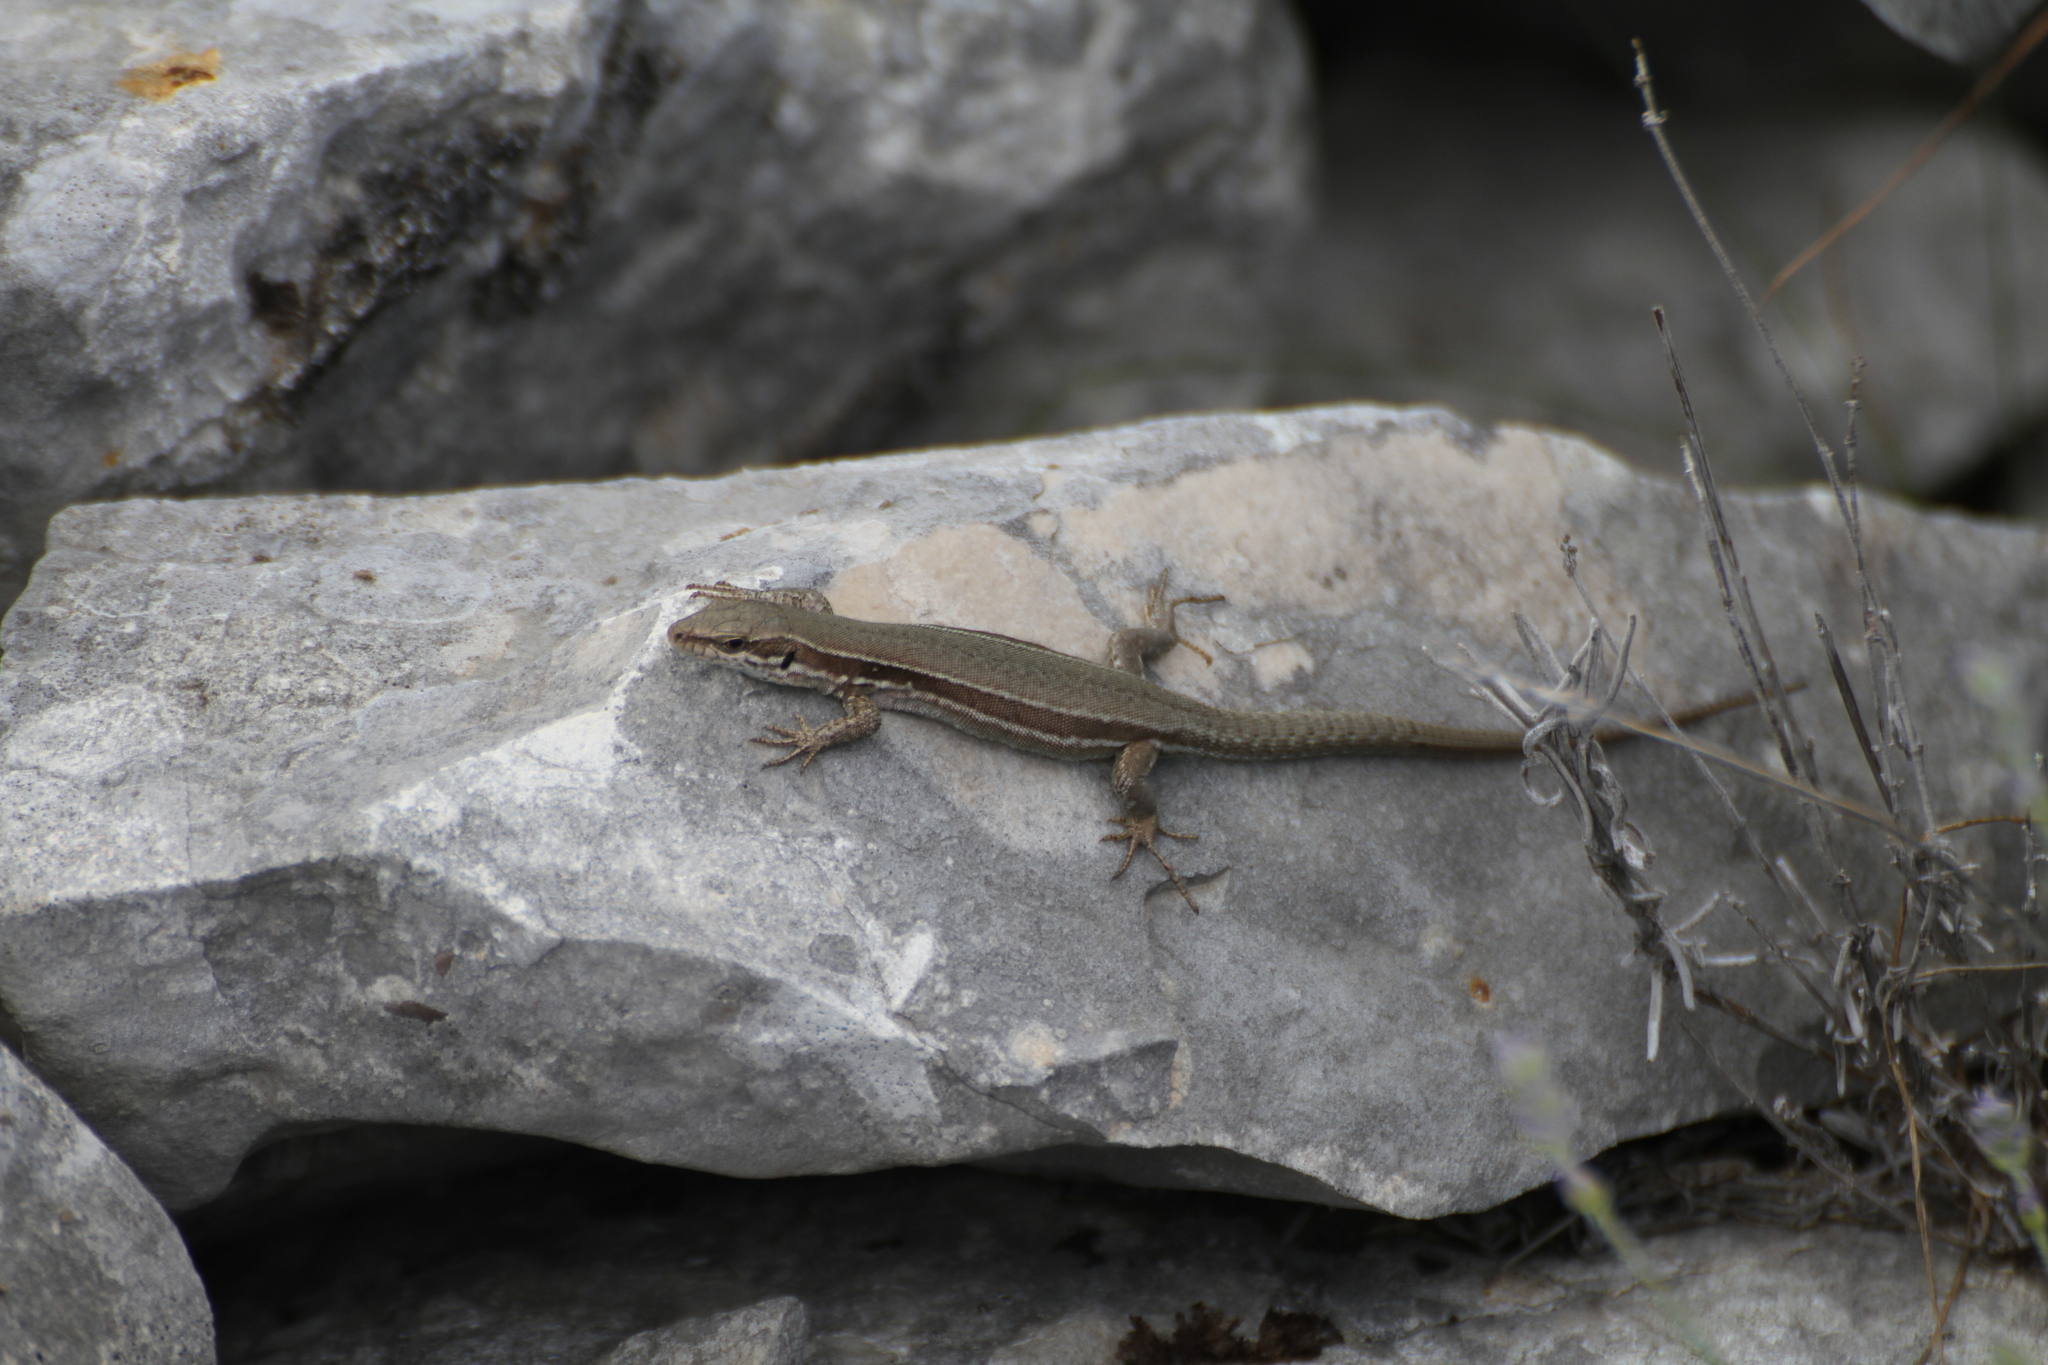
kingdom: Animalia
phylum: Chordata
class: Squamata
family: Lacertidae
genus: Podarcis
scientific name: Podarcis muralis
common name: Common wall lizard
